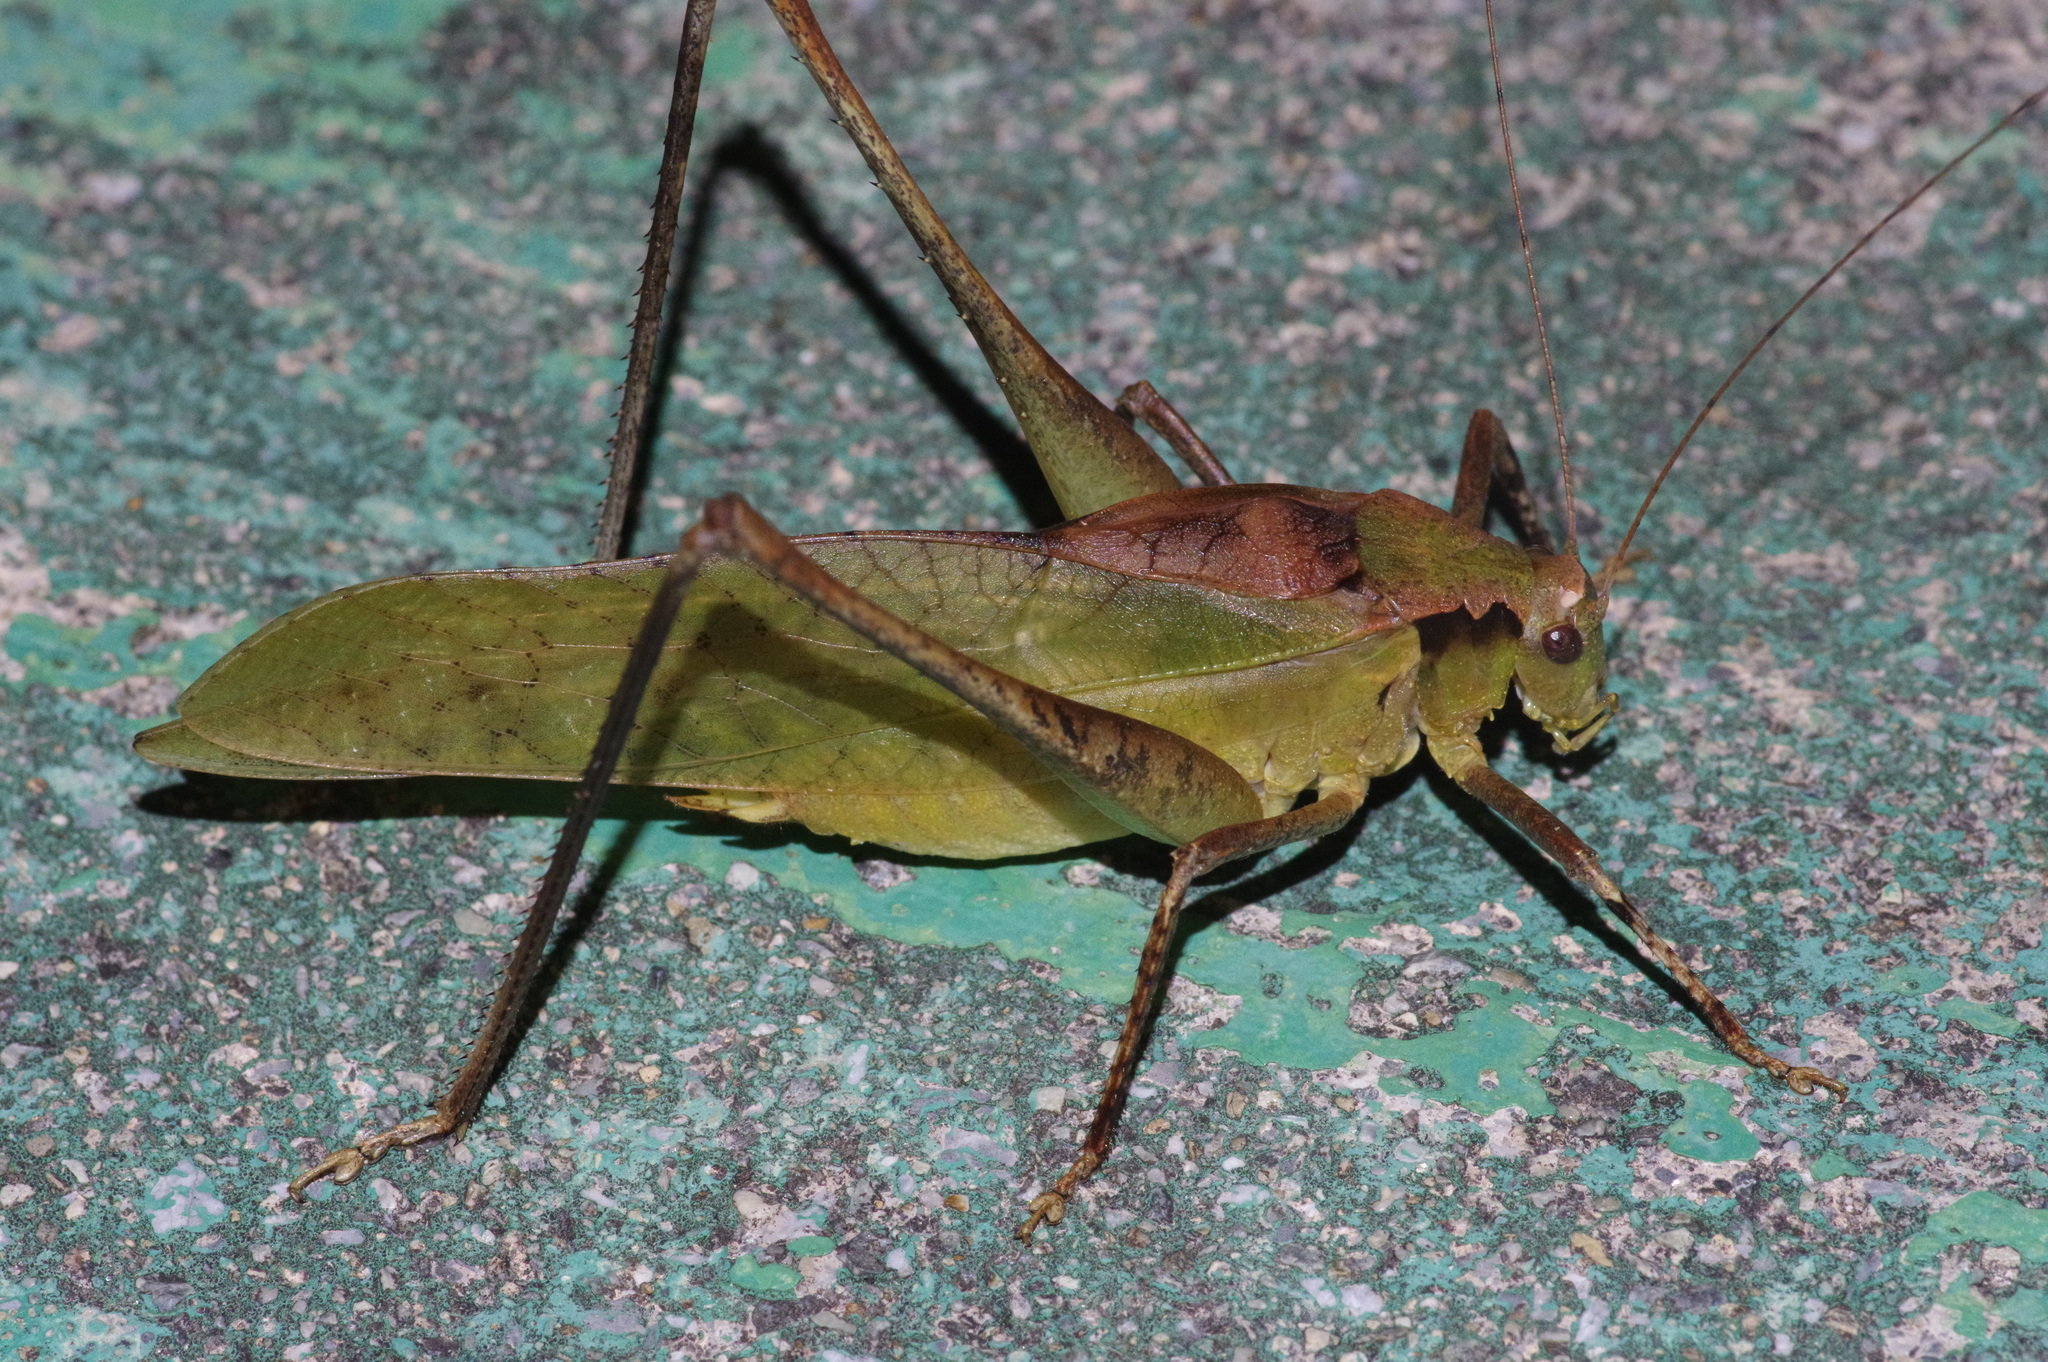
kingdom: Animalia
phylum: Arthropoda
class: Insecta
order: Orthoptera
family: Tettigoniidae
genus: Mecopoda
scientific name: Mecopoda elongata
